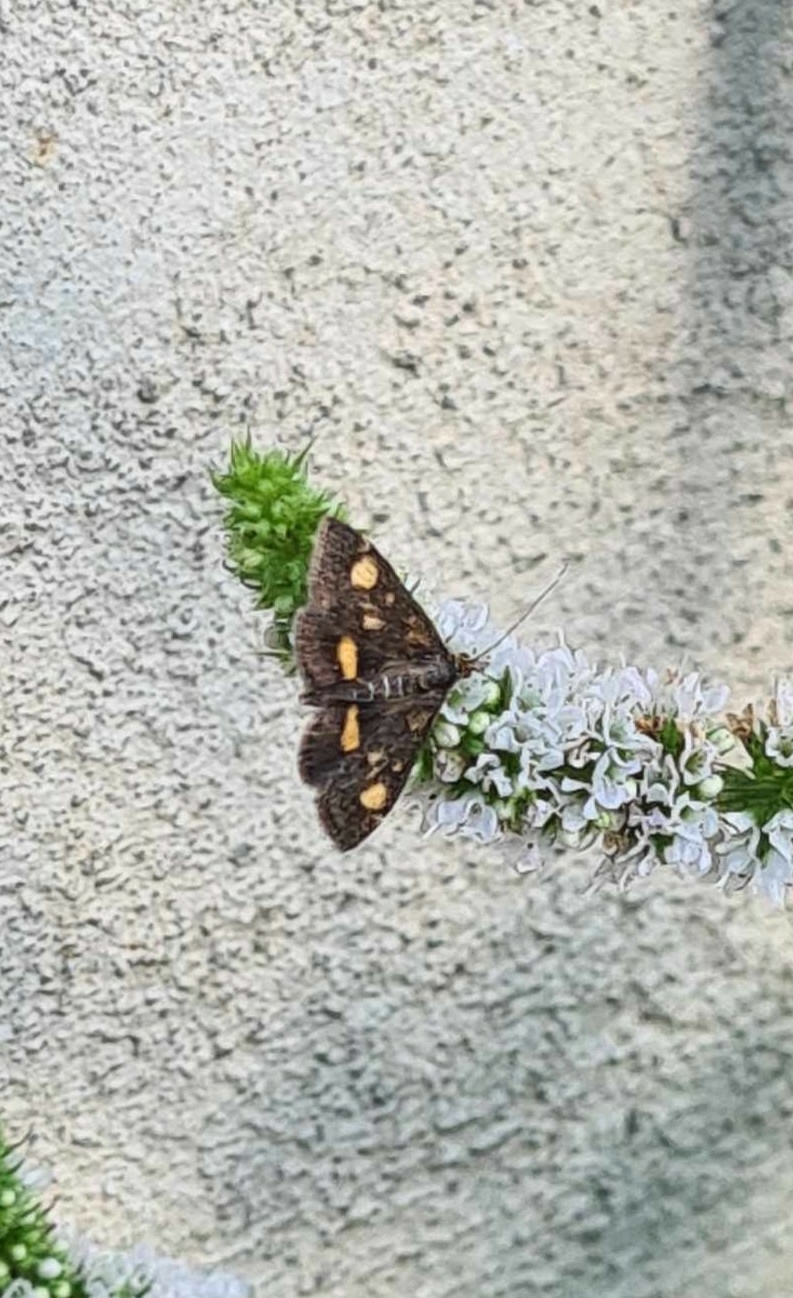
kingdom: Animalia
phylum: Arthropoda
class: Insecta
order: Lepidoptera
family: Crambidae
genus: Pyrausta
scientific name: Pyrausta aurata
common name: Small purple & gold
